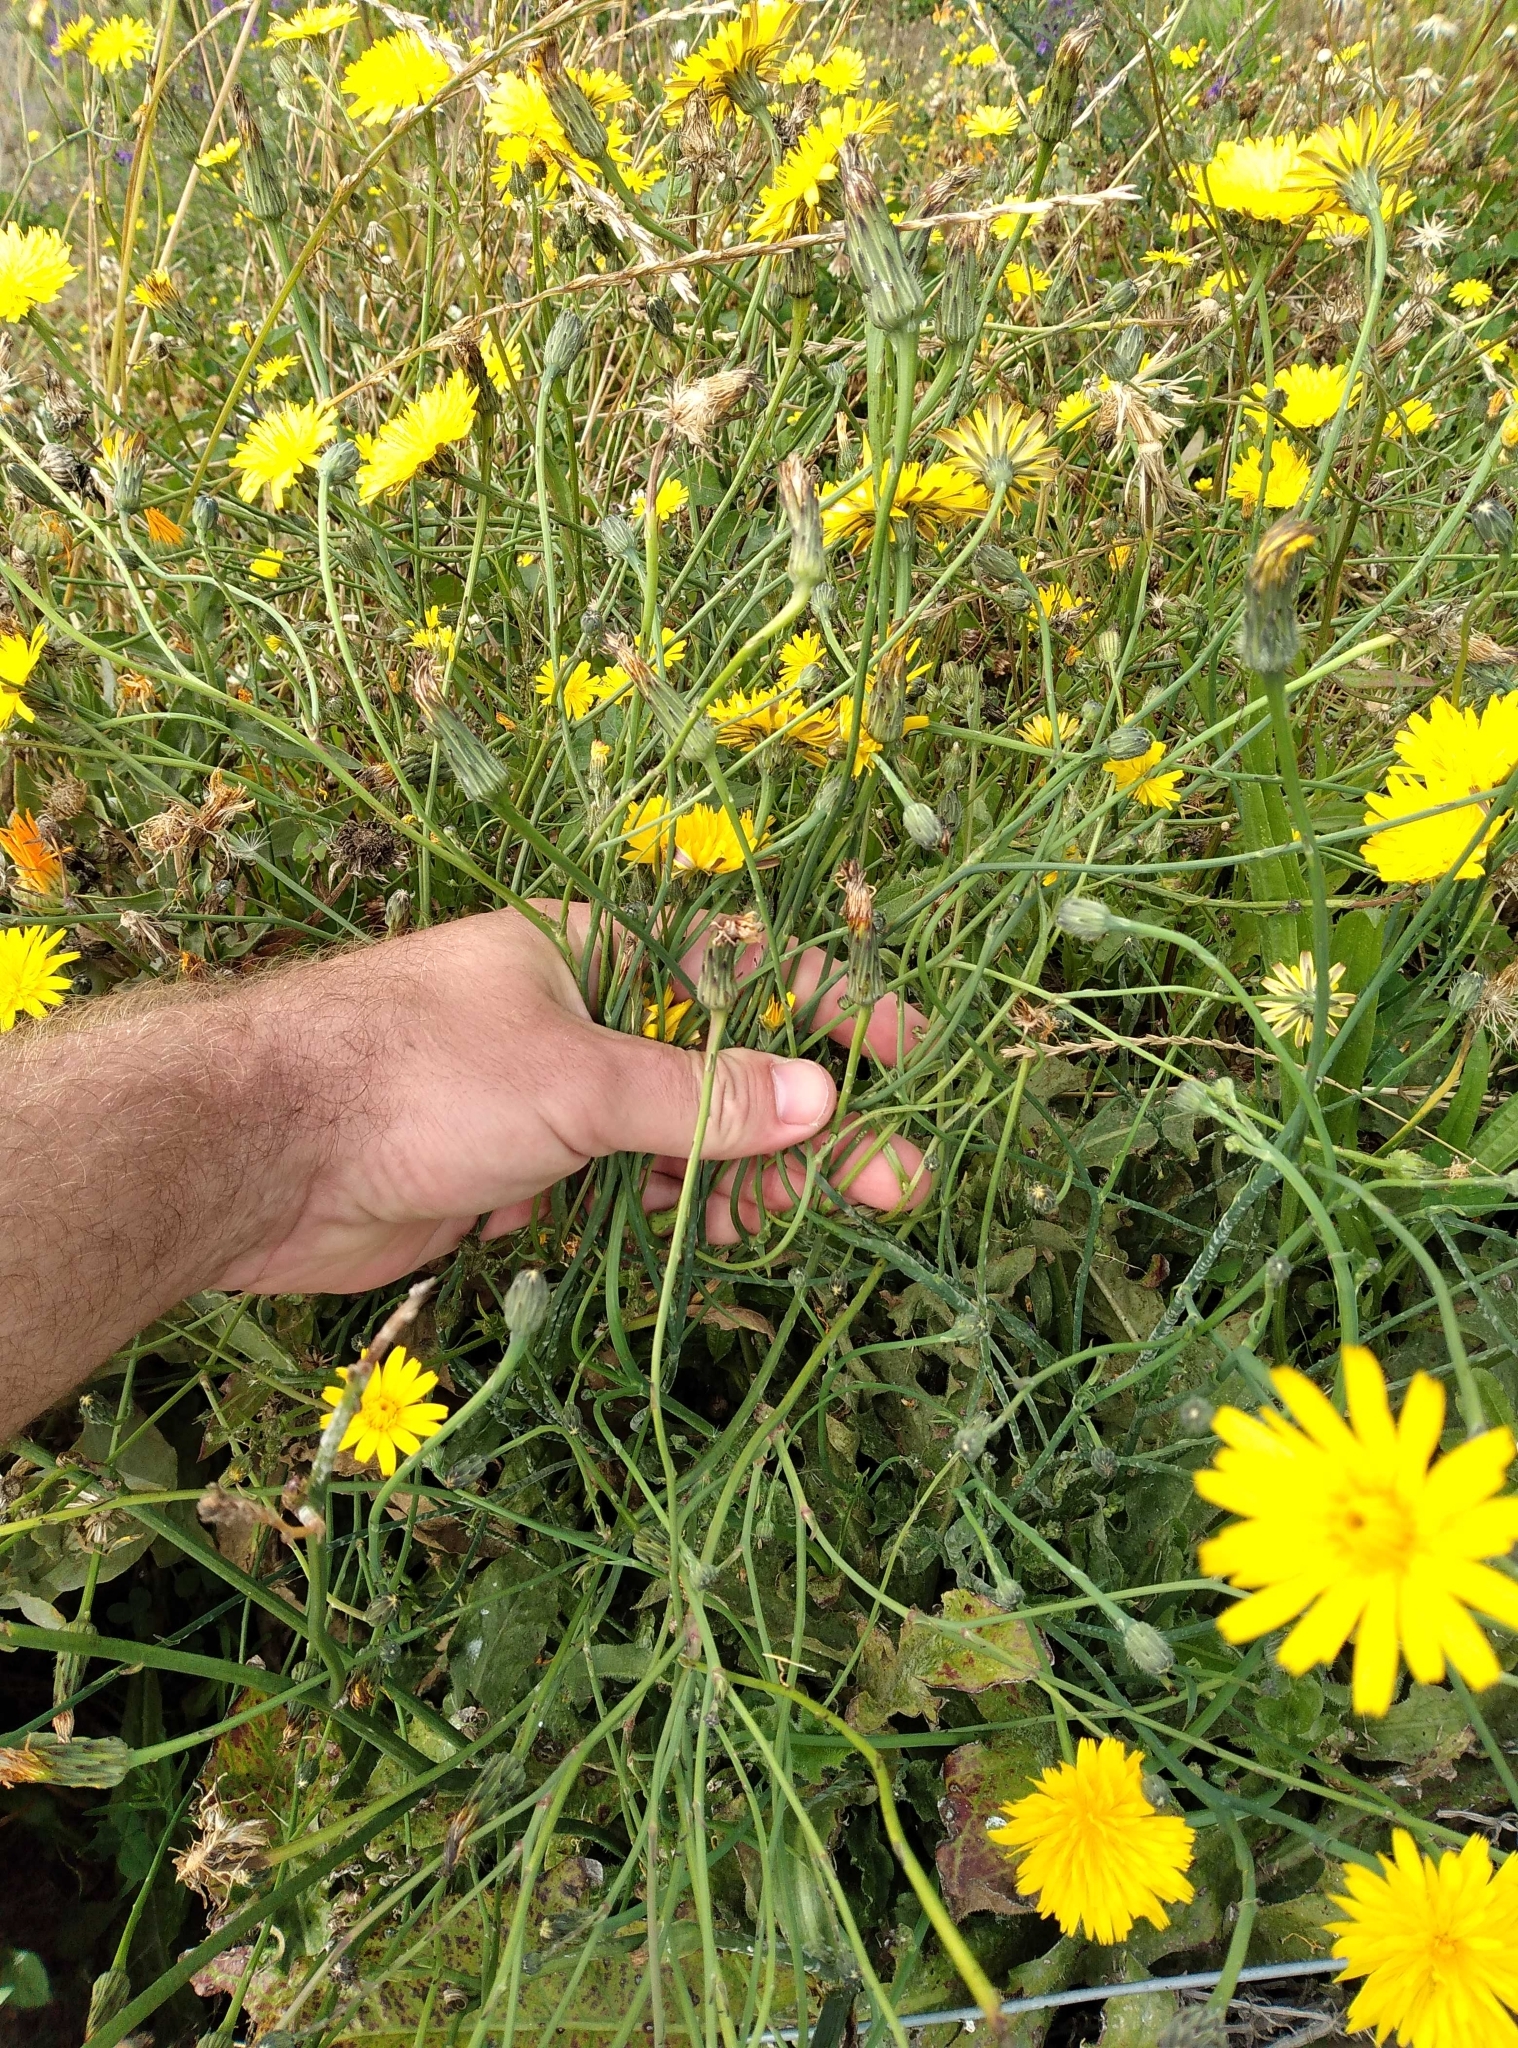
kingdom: Plantae
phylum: Tracheophyta
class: Magnoliopsida
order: Asterales
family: Asteraceae
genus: Hypochaeris
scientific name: Hypochaeris radicata
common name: Flatweed
